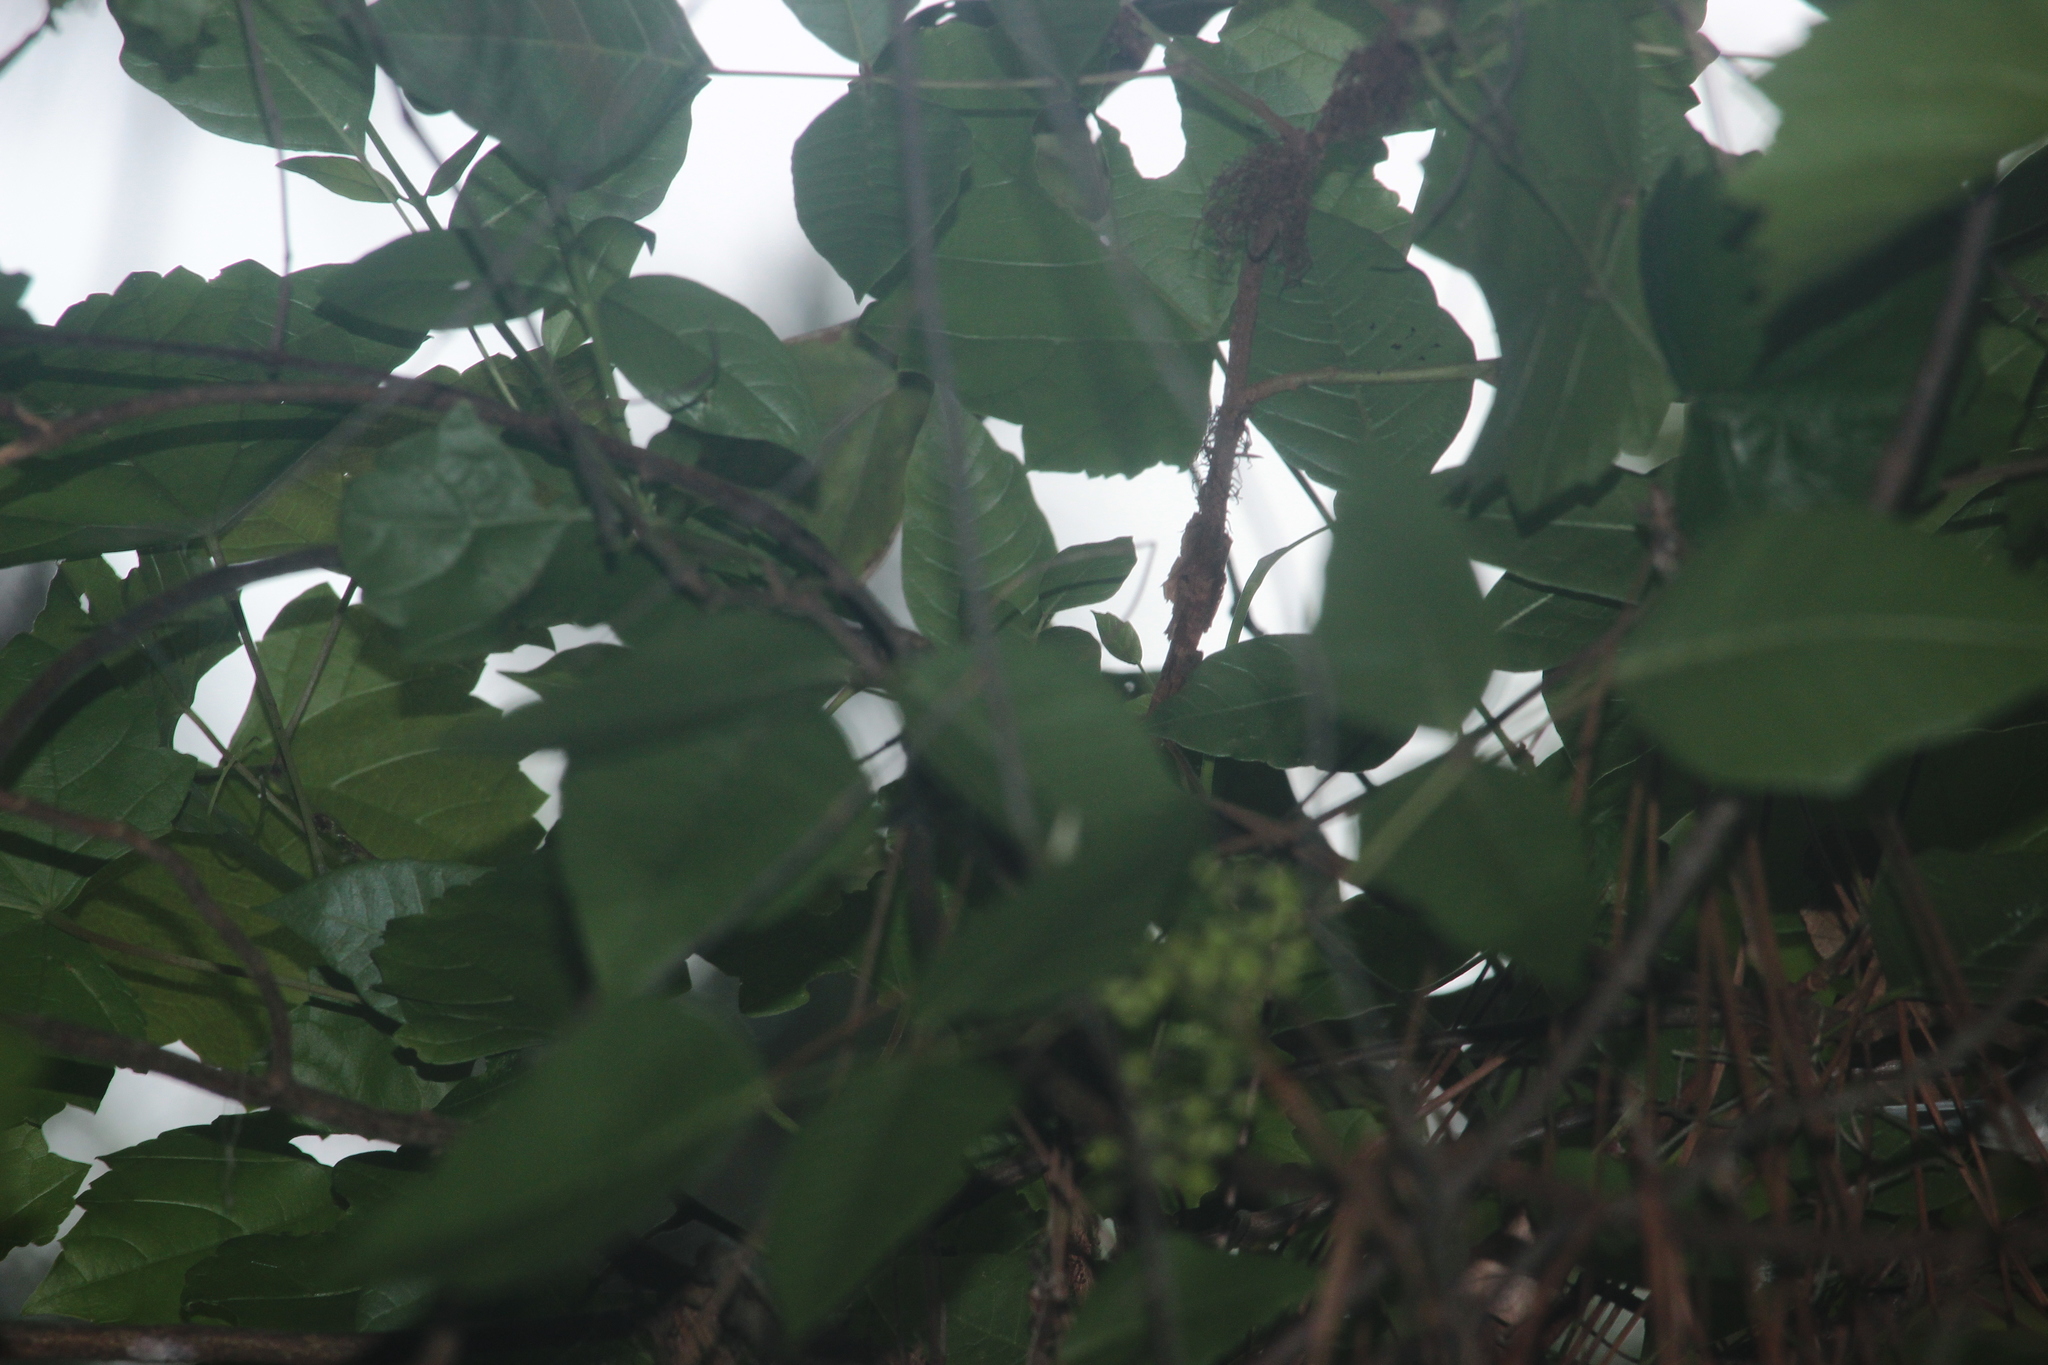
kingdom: Animalia
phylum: Chordata
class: Aves
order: Passeriformes
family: Parulidae
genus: Setophaga
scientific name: Setophaga americana
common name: Northern parula
